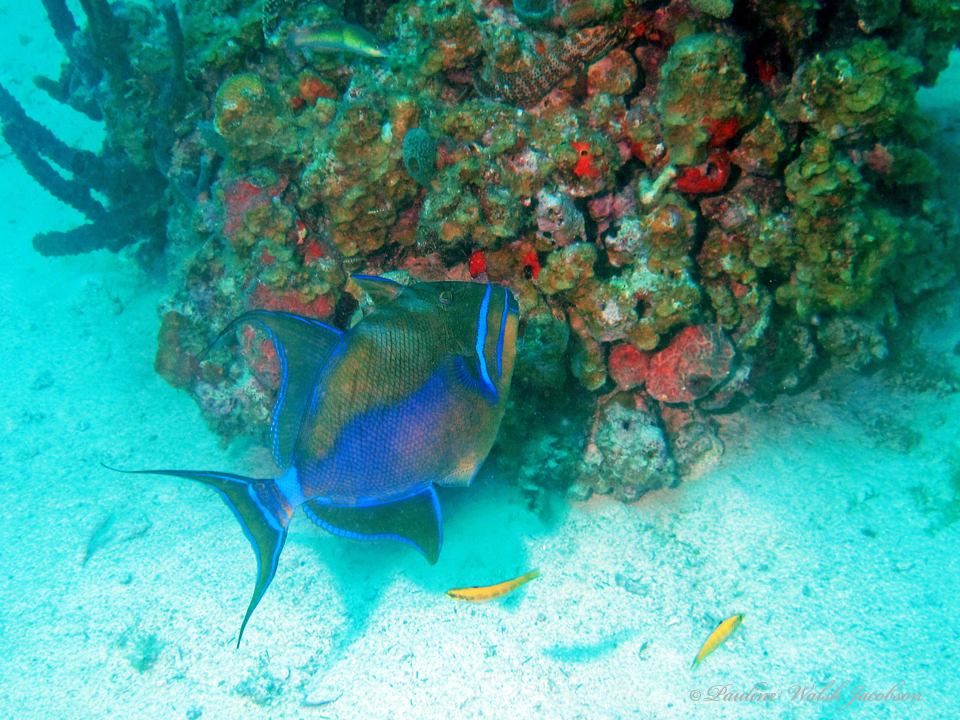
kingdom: Animalia
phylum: Chordata
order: Tetraodontiformes
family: Balistidae
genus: Balistes
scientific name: Balistes vetula
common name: Queen triggerfish
